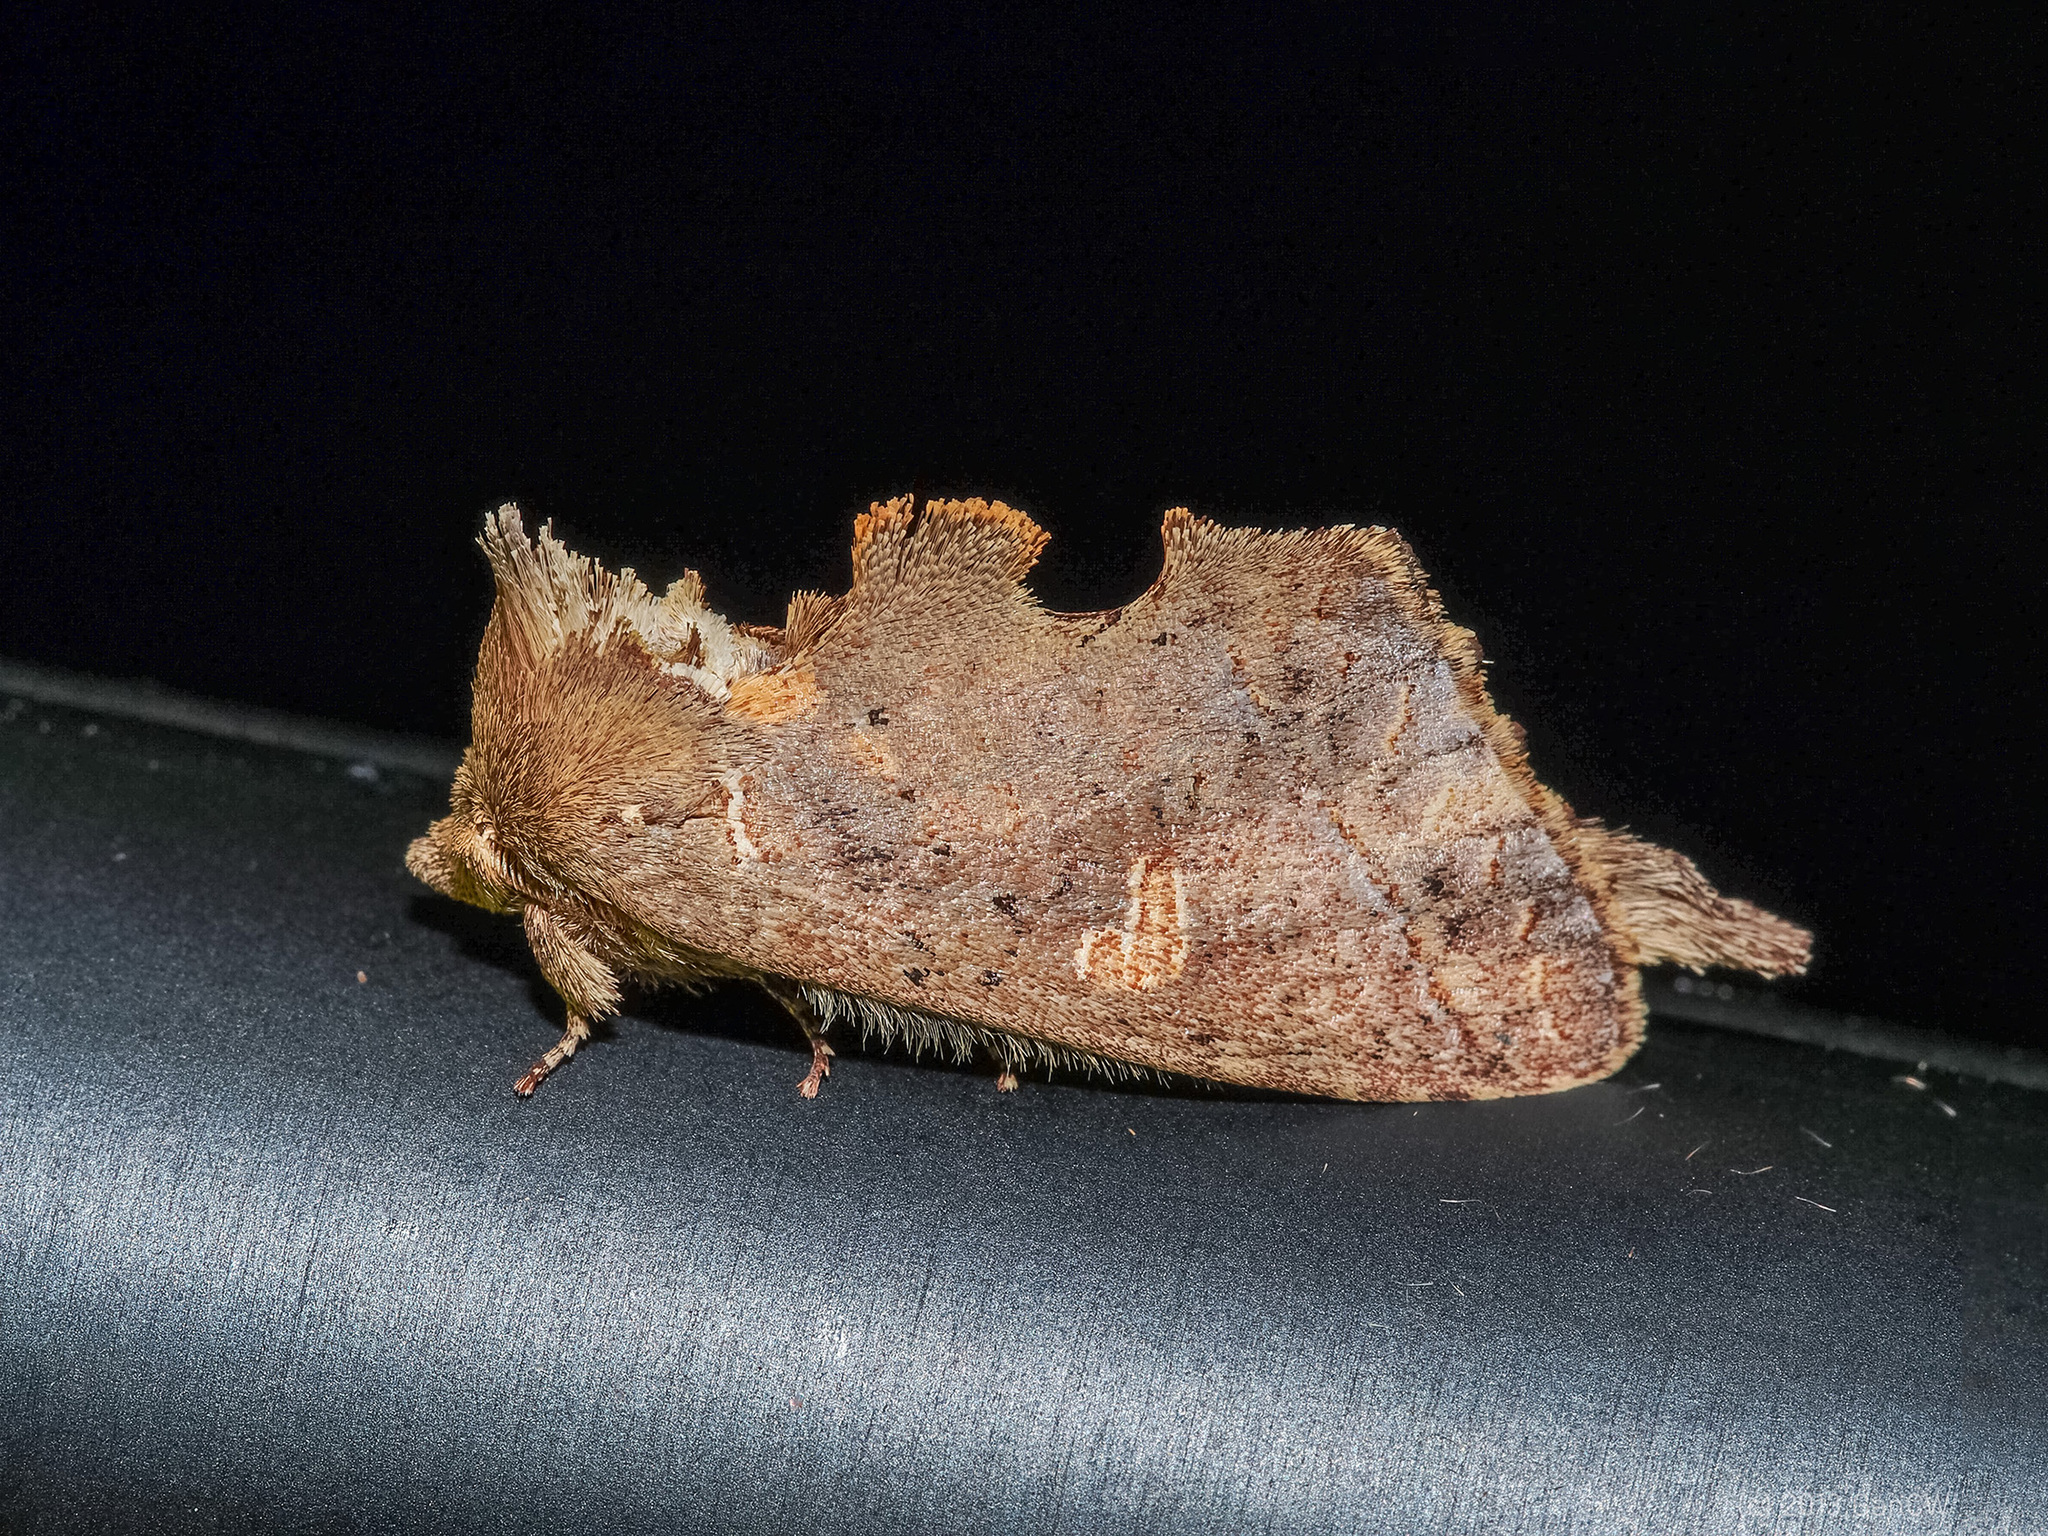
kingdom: Animalia
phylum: Arthropoda
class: Insecta
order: Lepidoptera
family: Notodontidae
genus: Caschara
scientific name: Caschara punctifera
